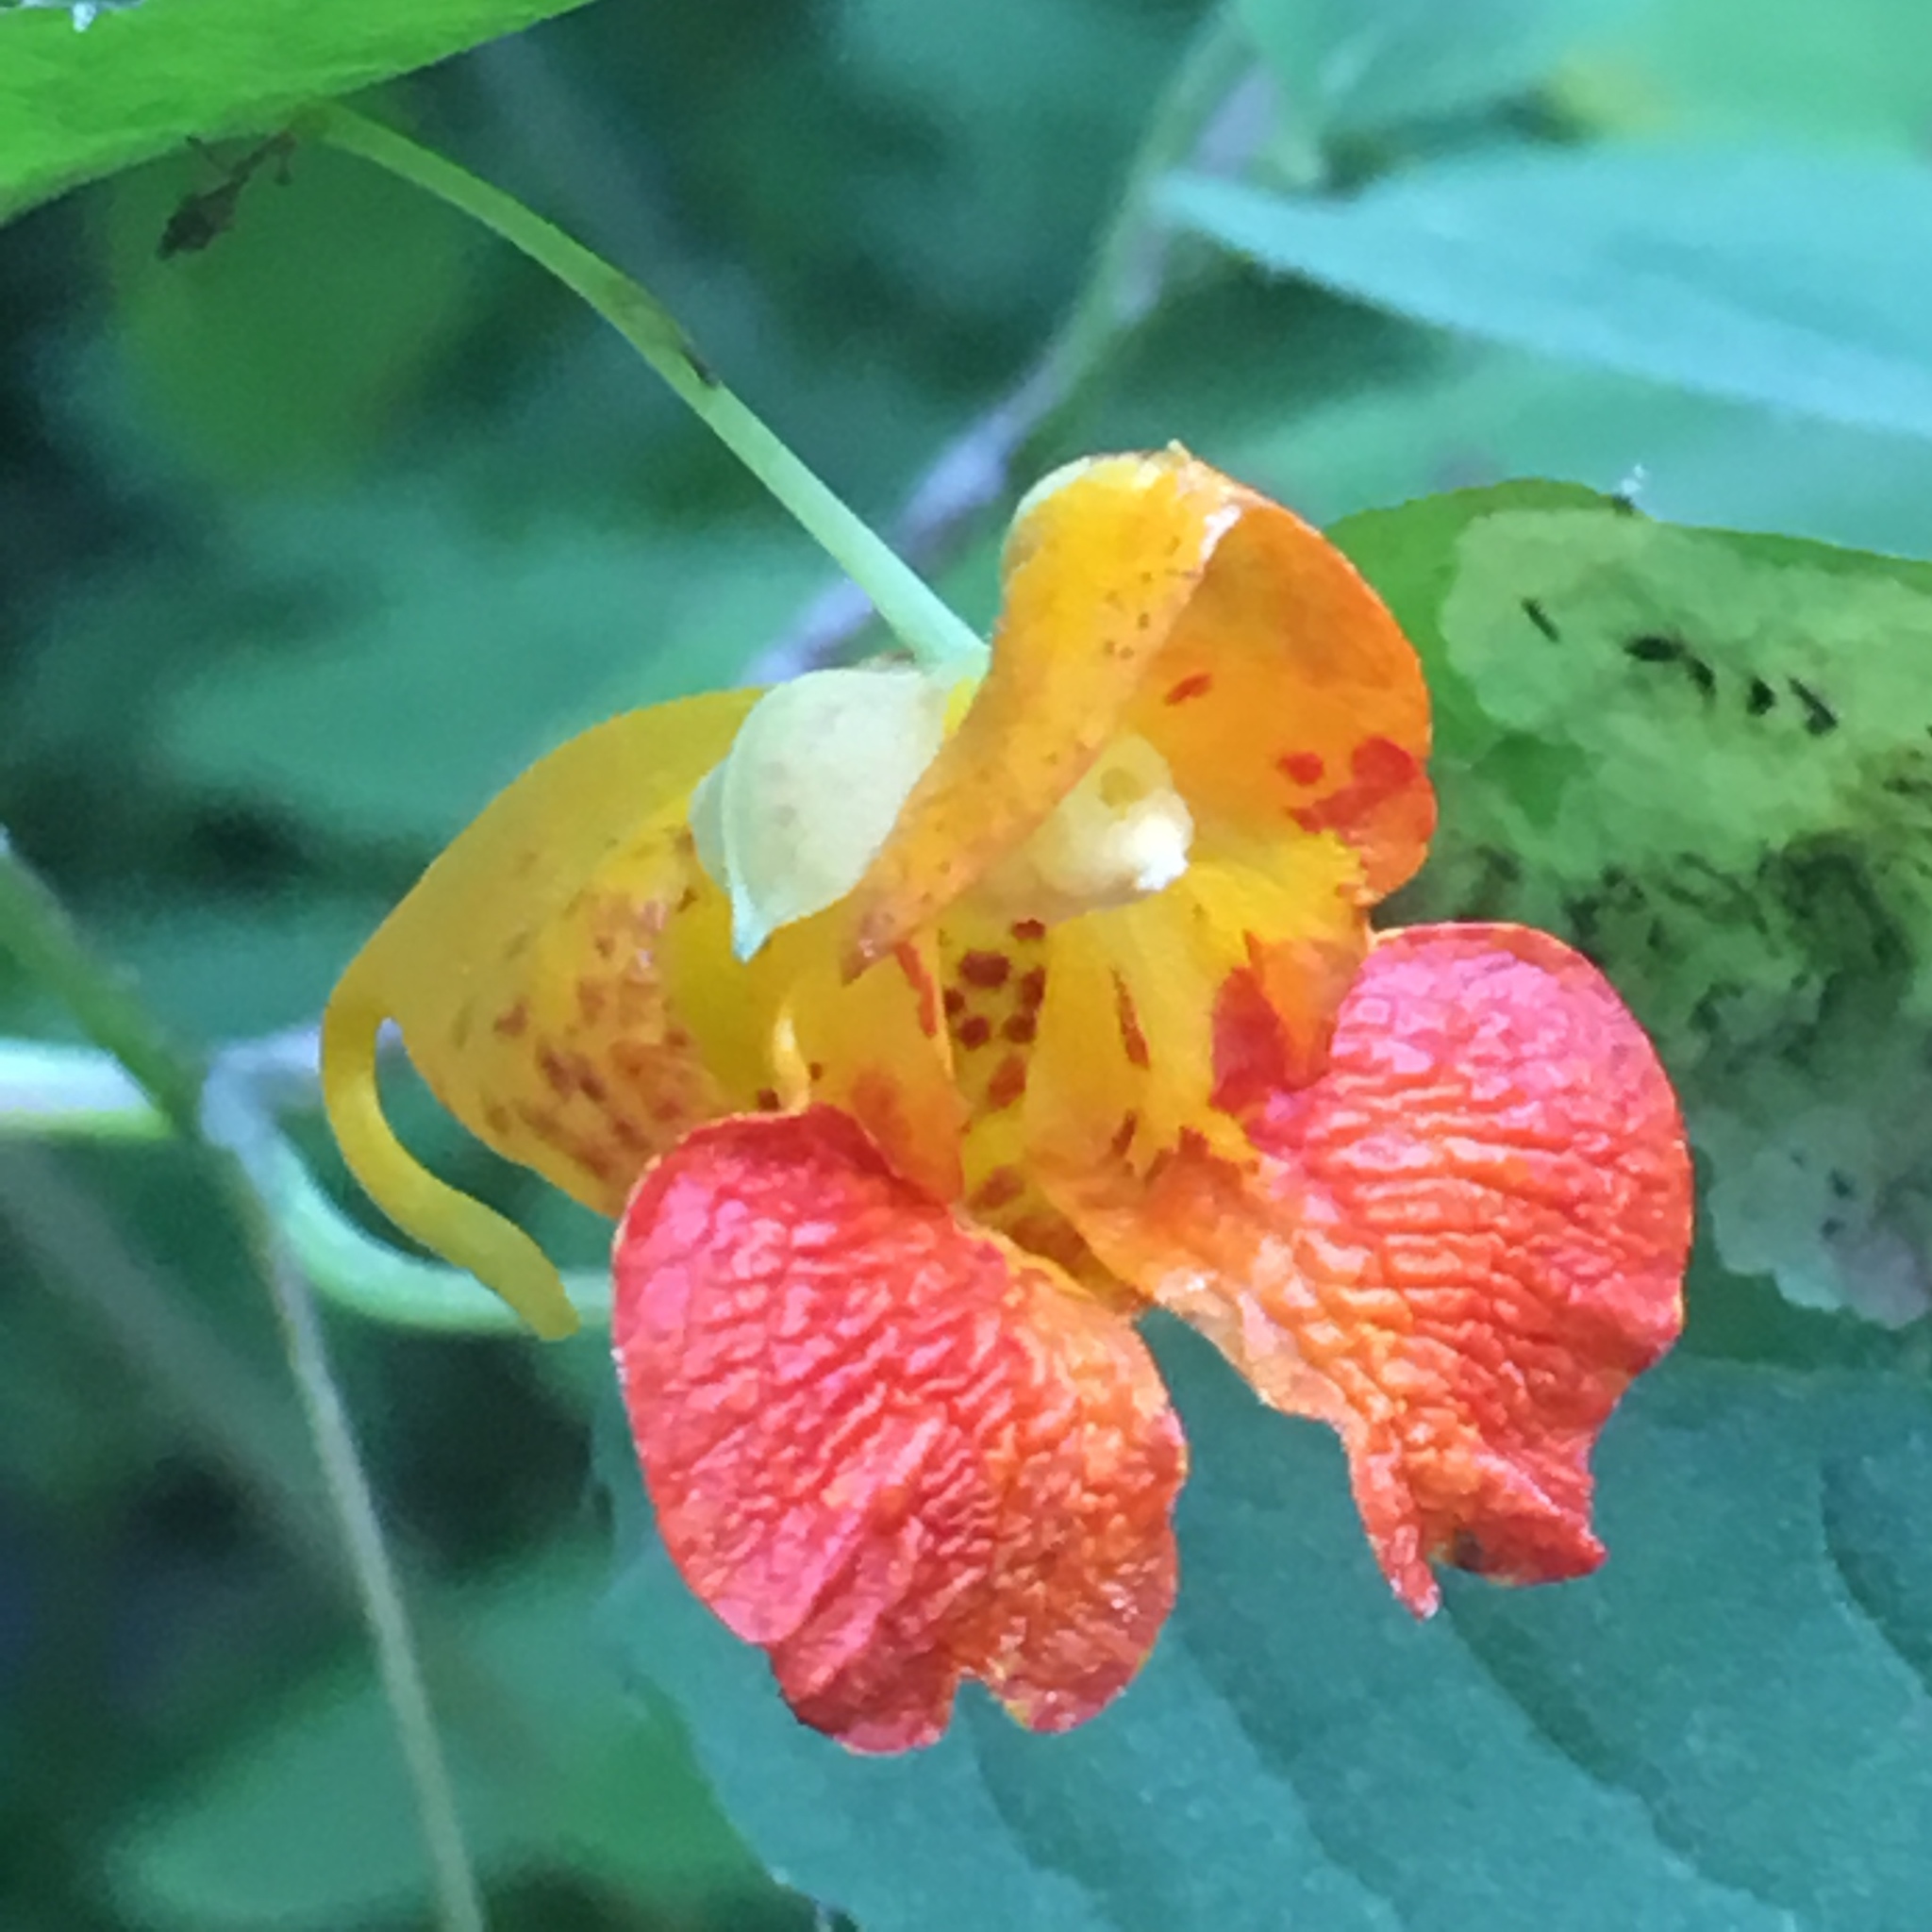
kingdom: Plantae
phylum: Tracheophyta
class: Magnoliopsida
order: Ericales
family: Balsaminaceae
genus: Impatiens
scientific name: Impatiens capensis
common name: Orange balsam
